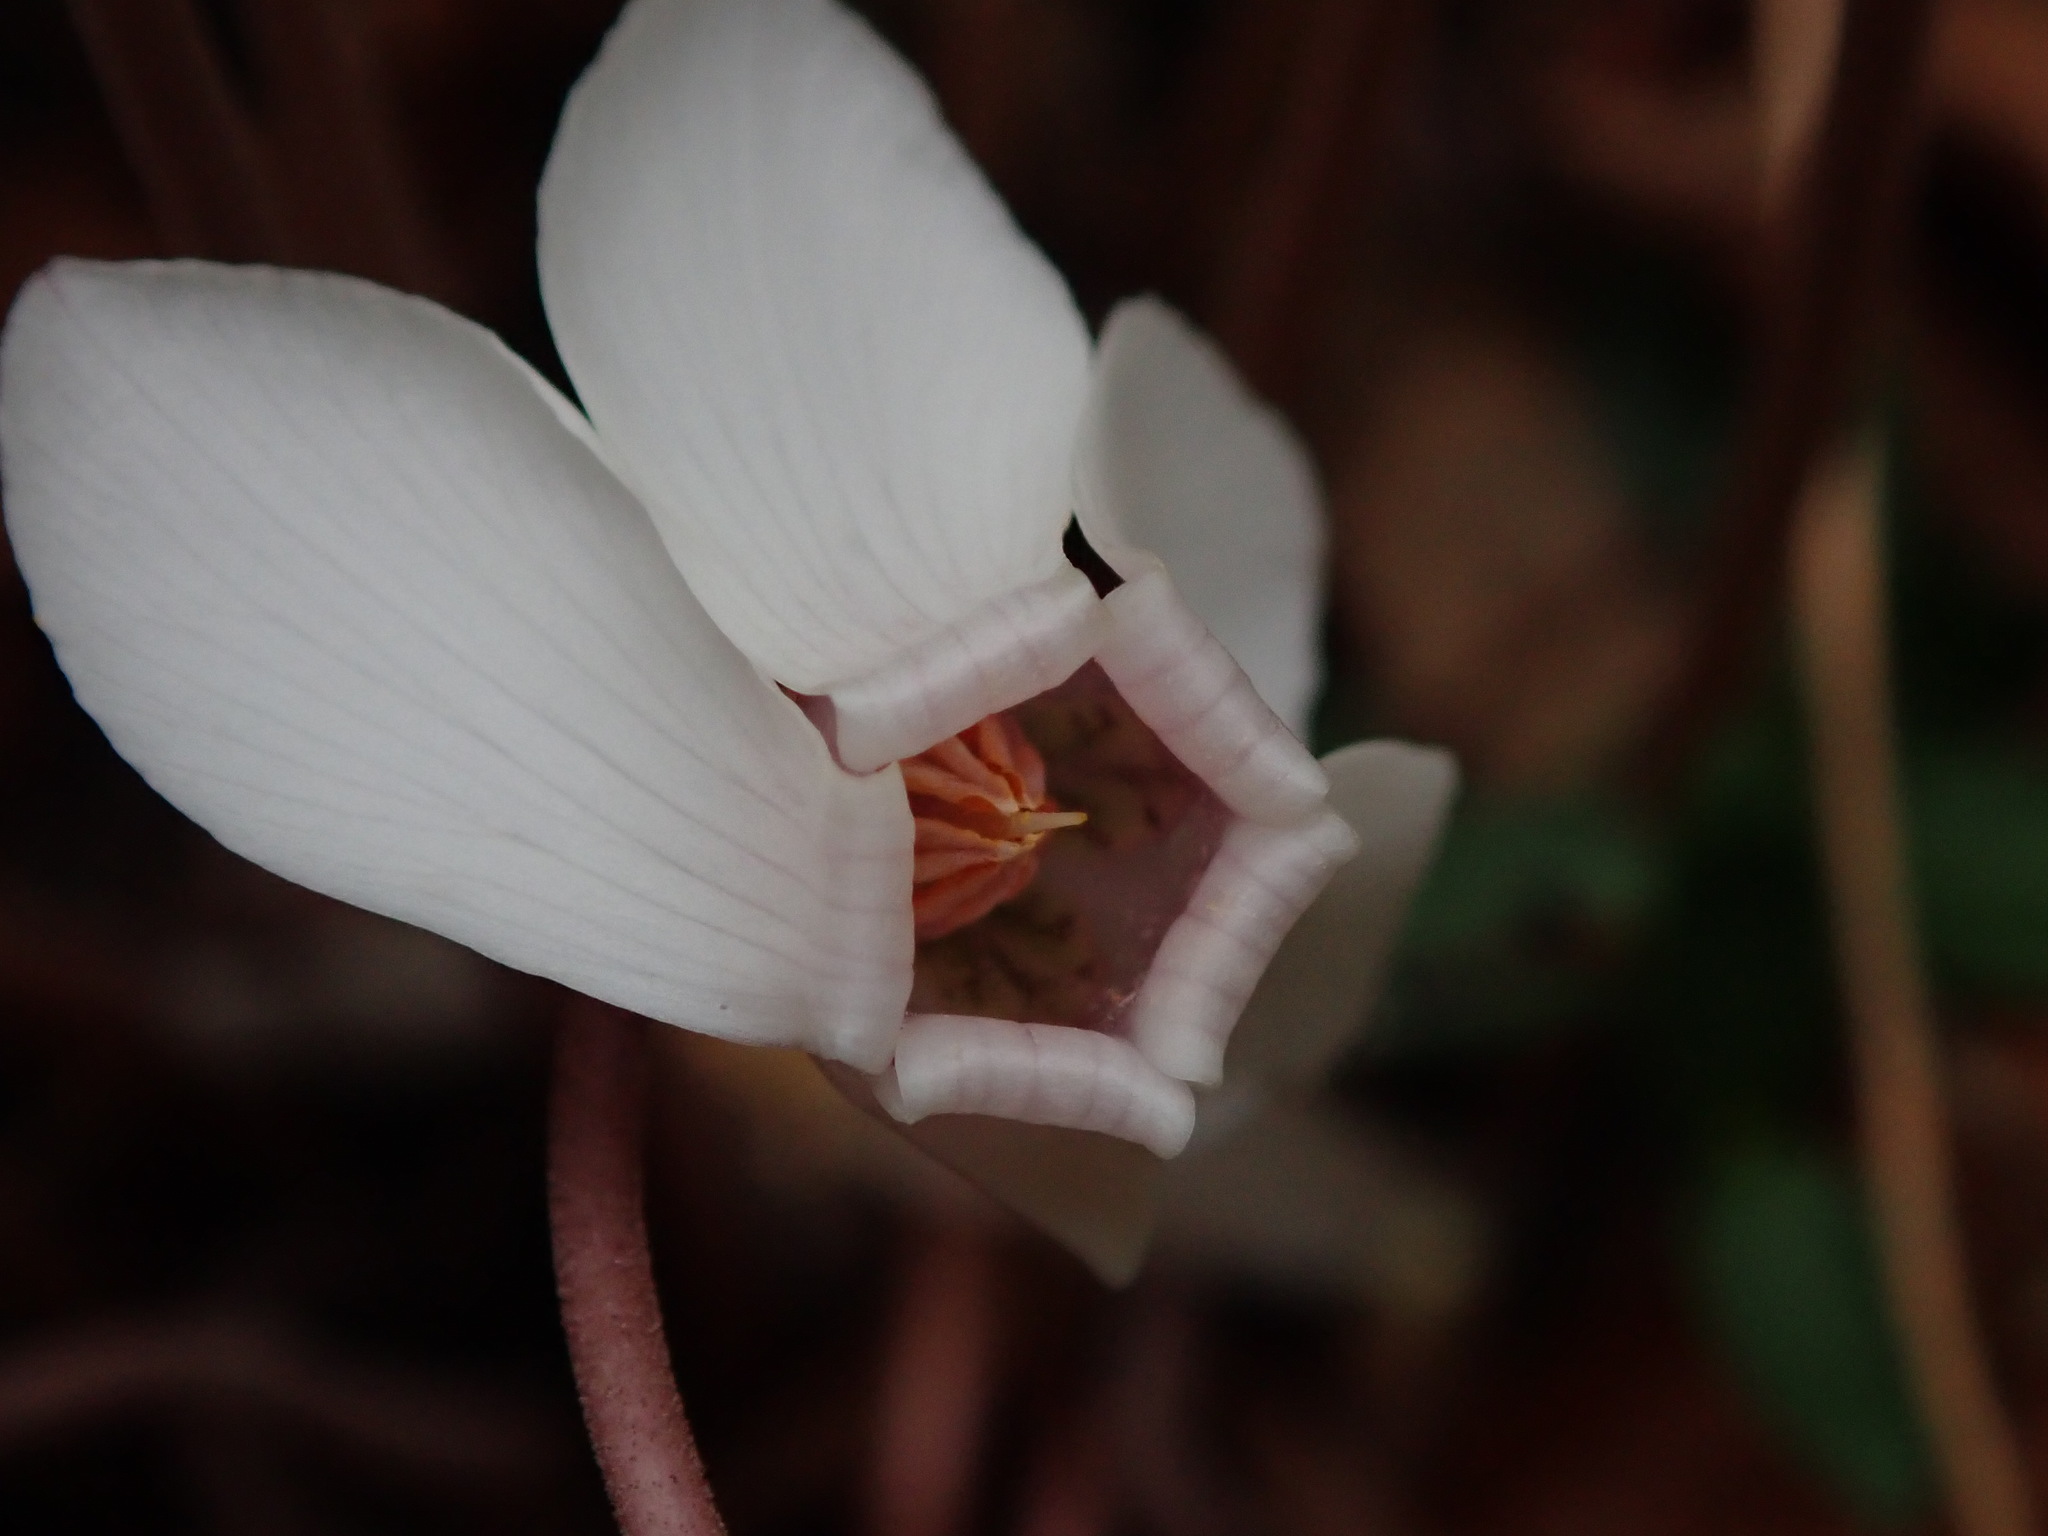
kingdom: Plantae
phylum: Tracheophyta
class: Magnoliopsida
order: Ericales
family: Primulaceae
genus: Cyclamen
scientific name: Cyclamen hederifolium
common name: Sowbread
